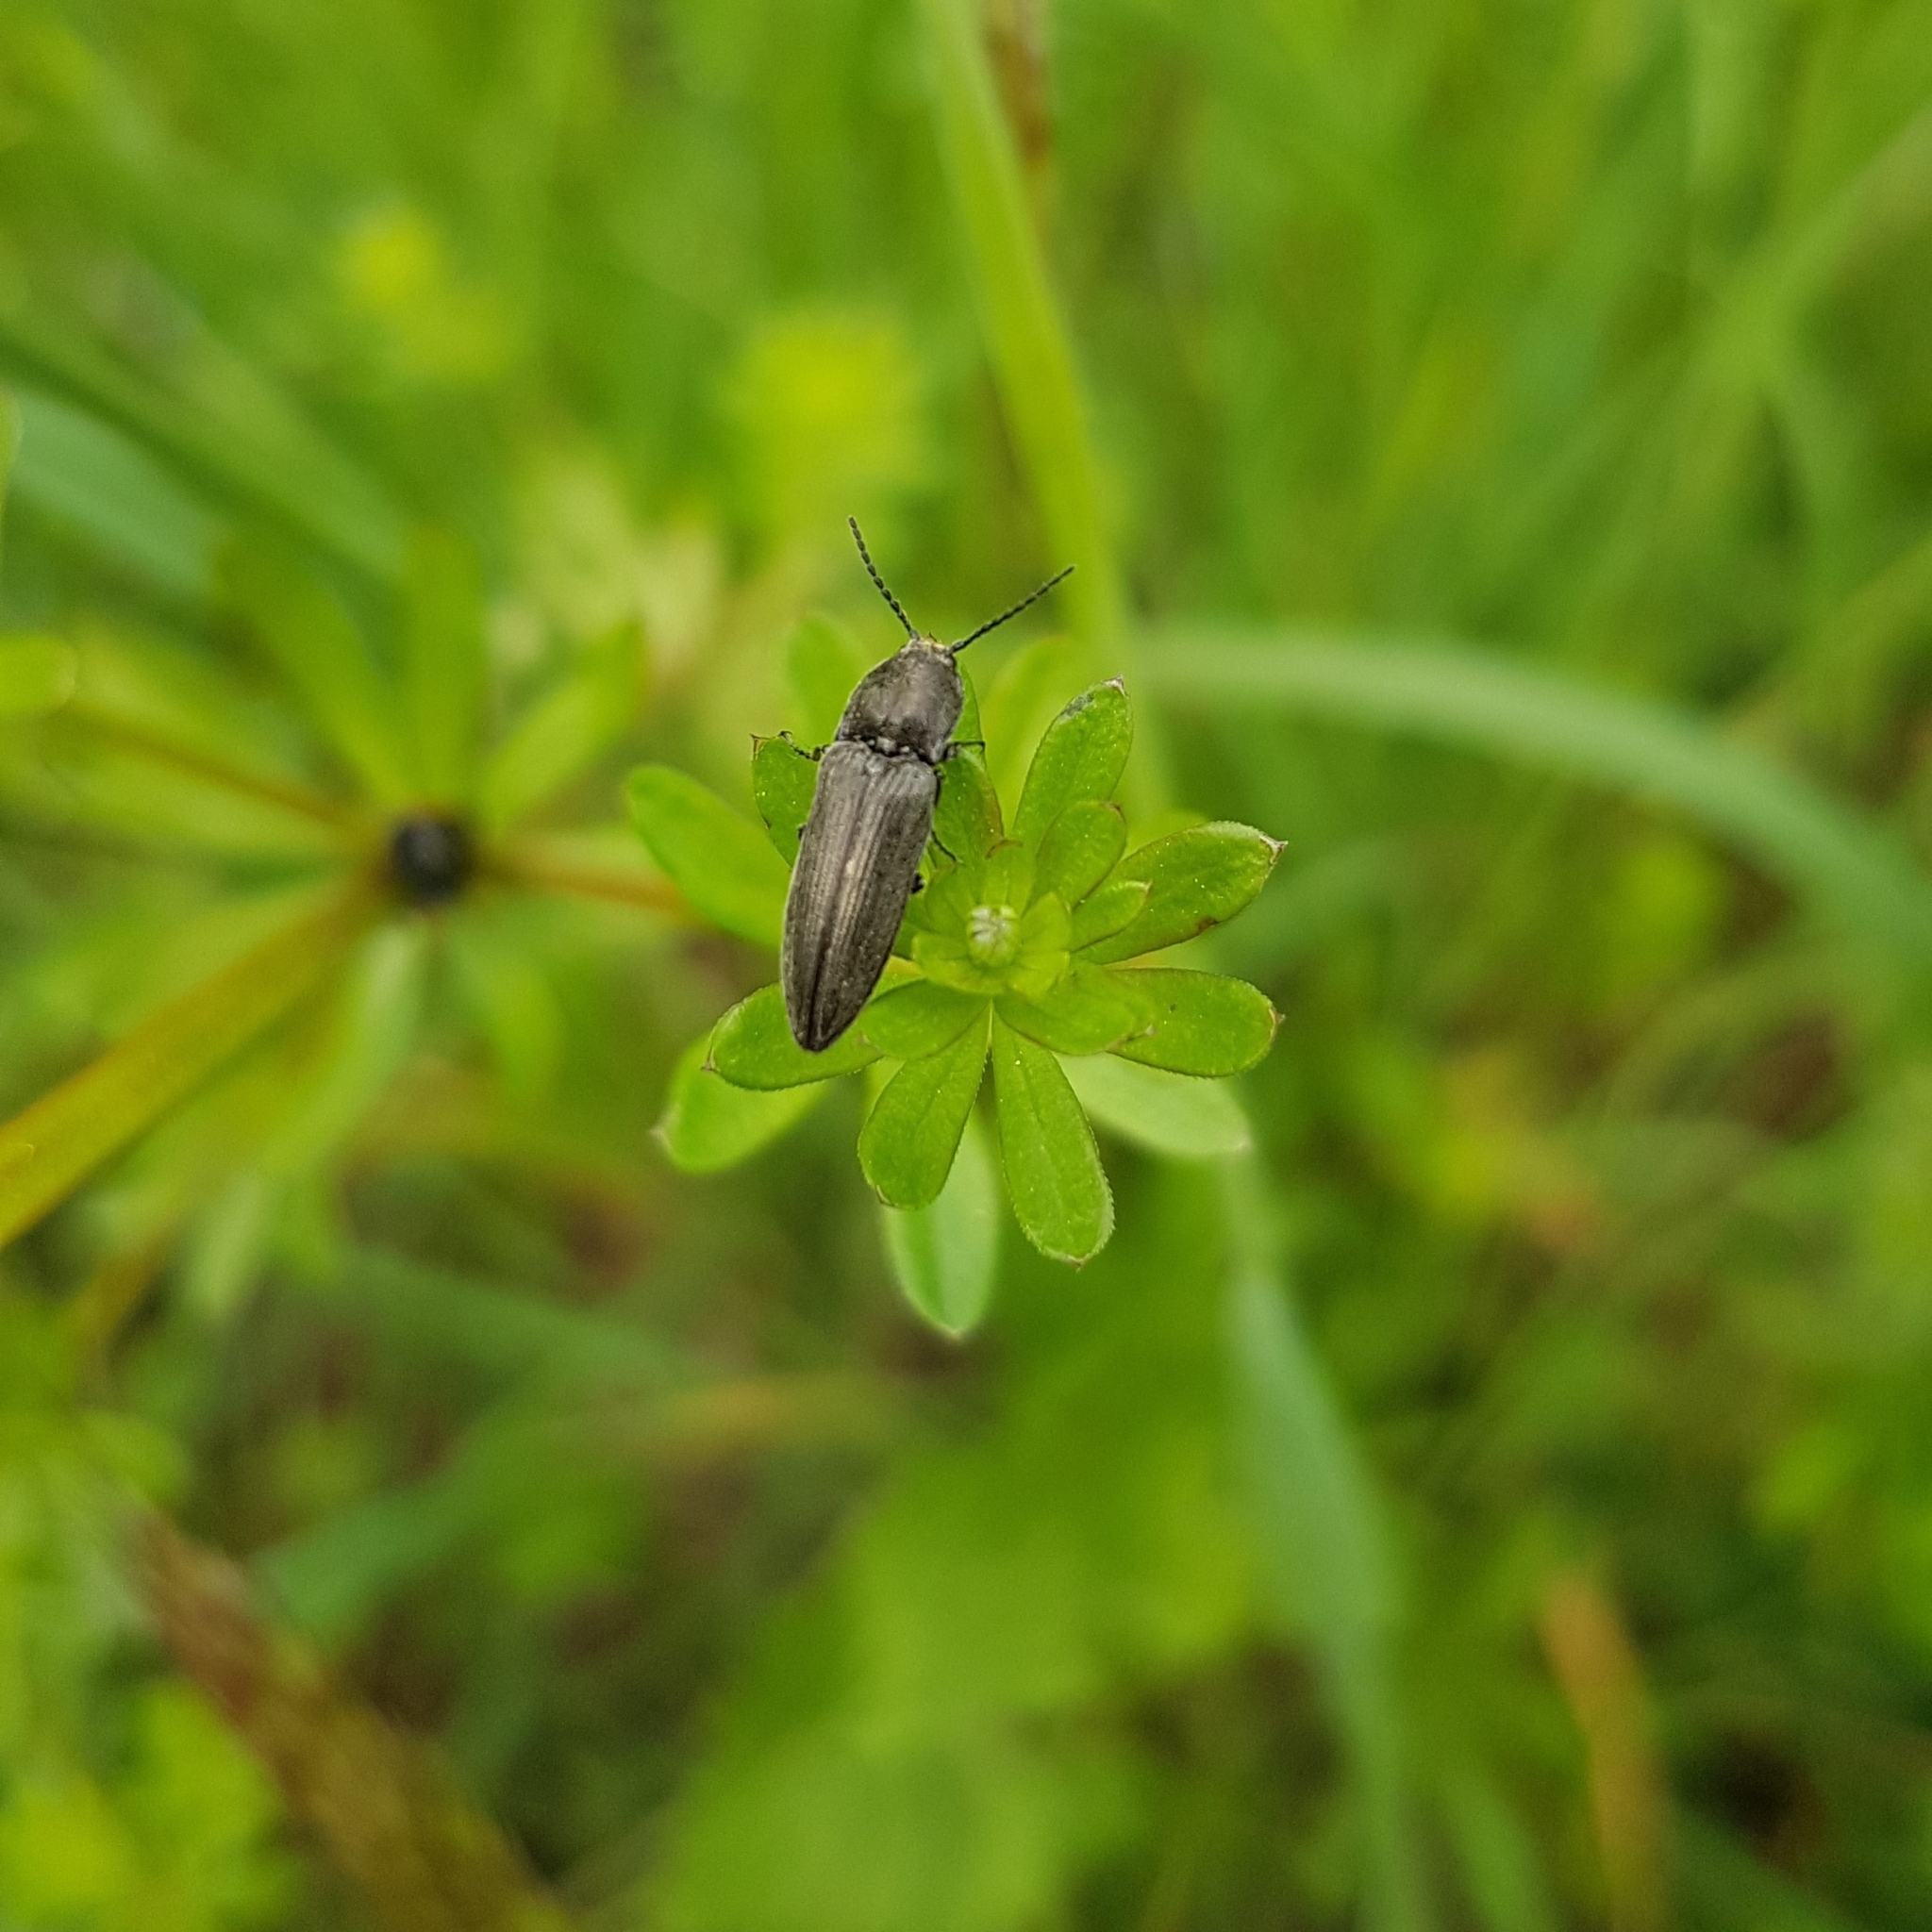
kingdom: Animalia
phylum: Arthropoda
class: Insecta
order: Coleoptera
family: Elateridae
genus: Cidnopus
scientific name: Cidnopus pilosus
